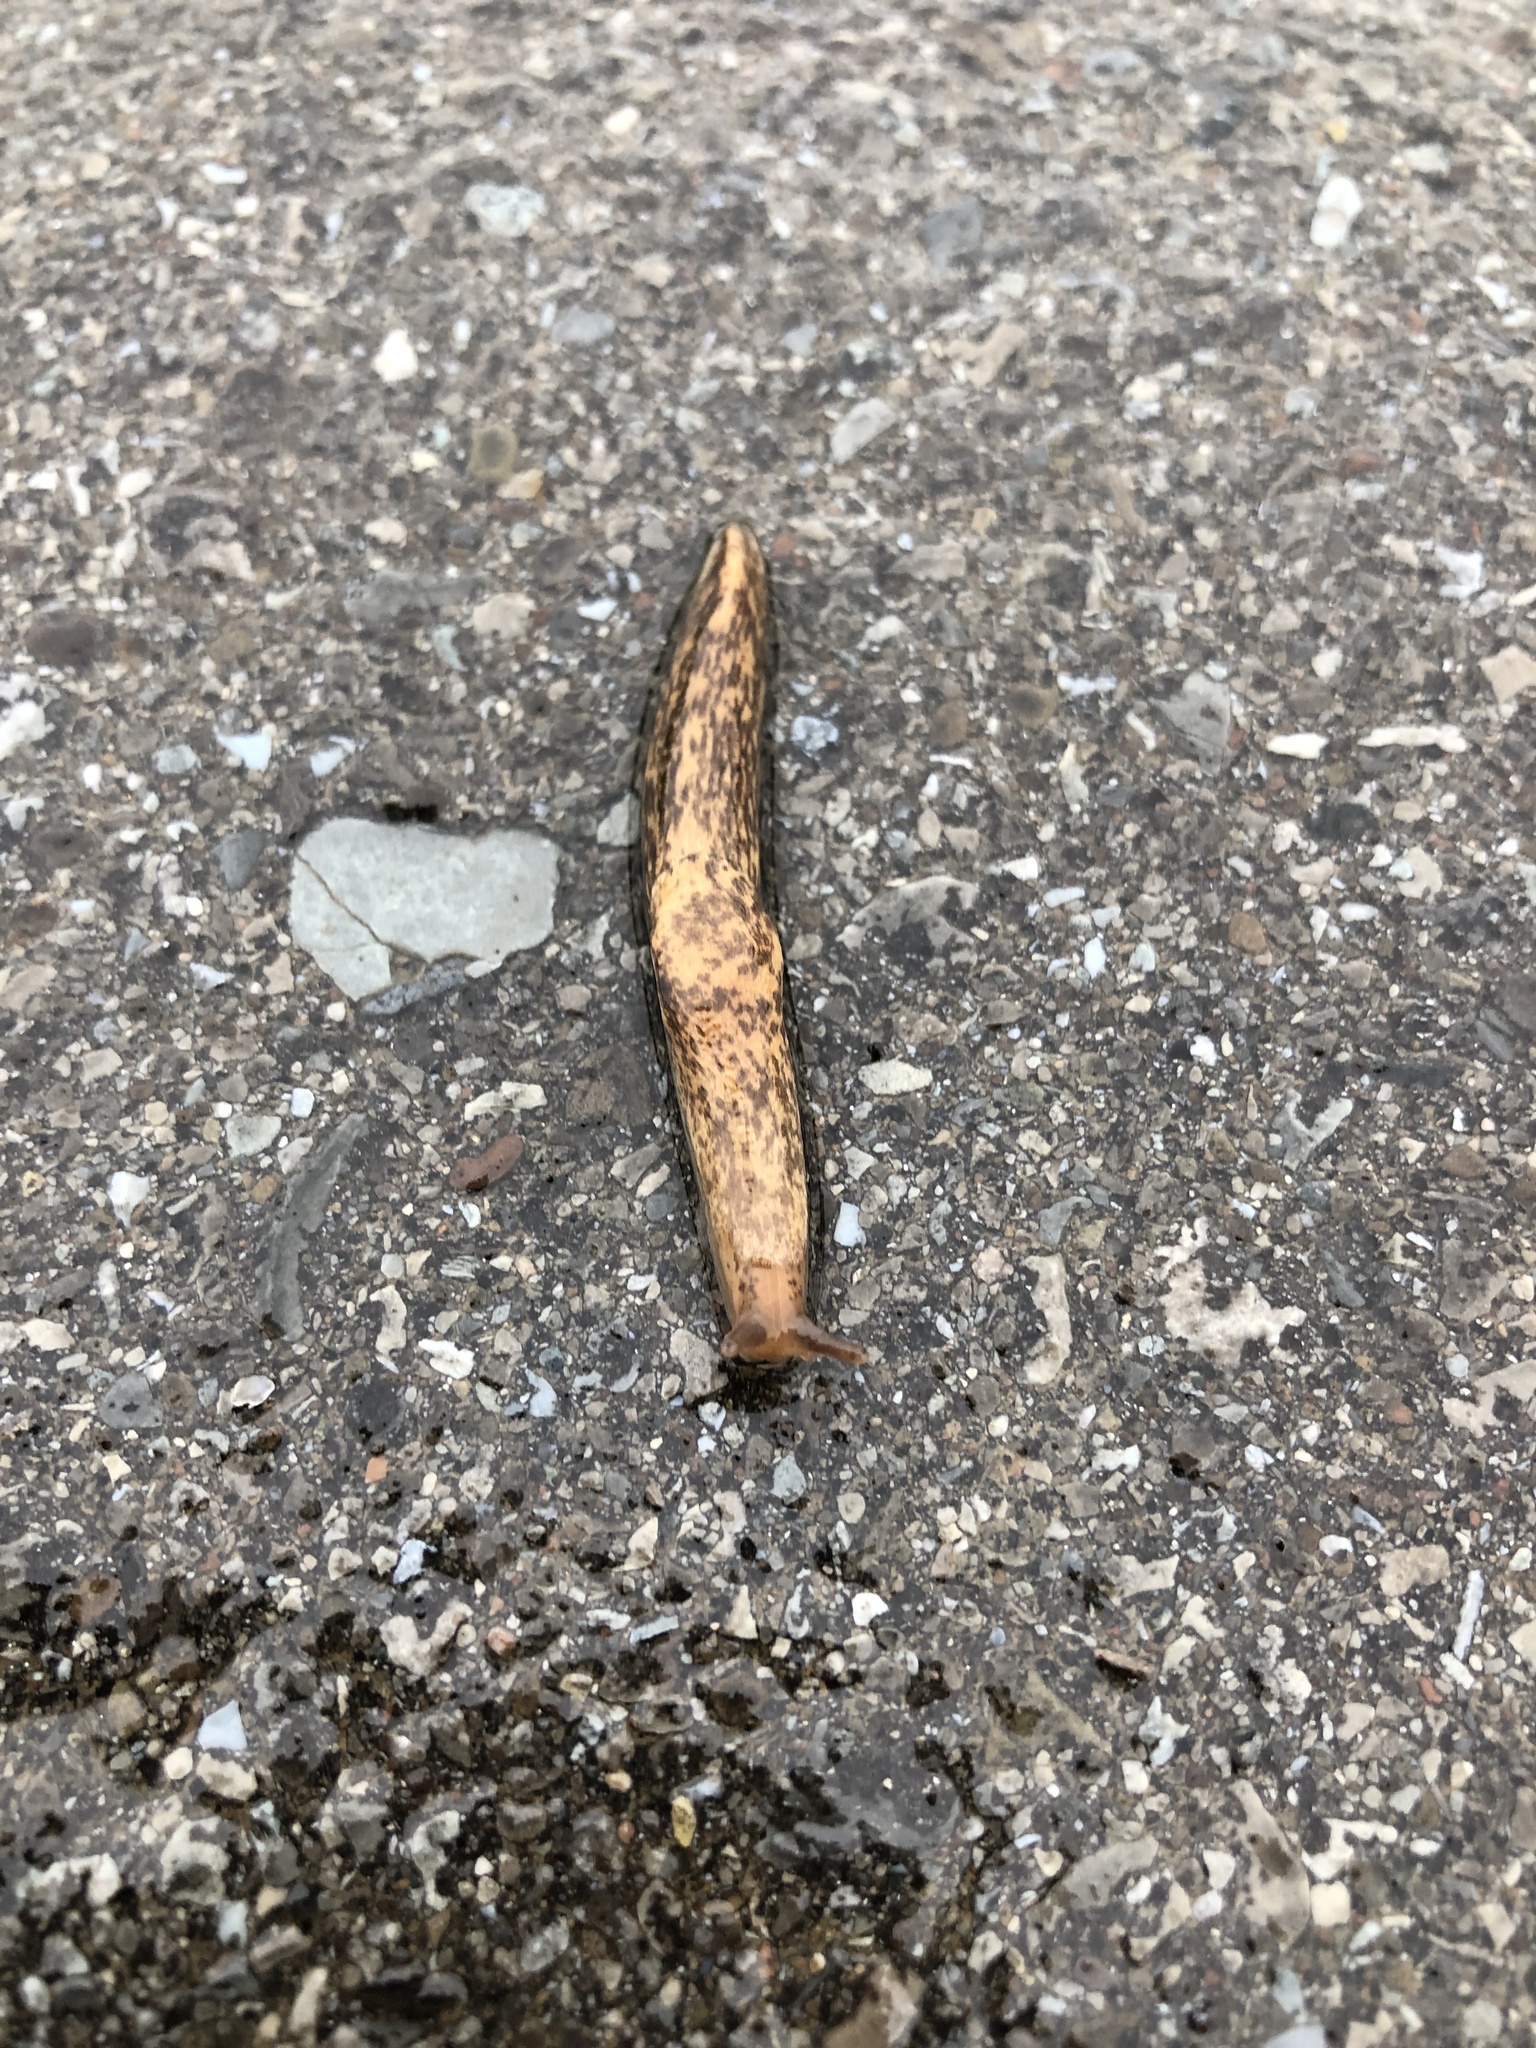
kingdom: Animalia
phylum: Mollusca
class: Gastropoda
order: Stylommatophora
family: Agriolimacidae
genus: Deroceras
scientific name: Deroceras reticulatum
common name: Gray field slug
